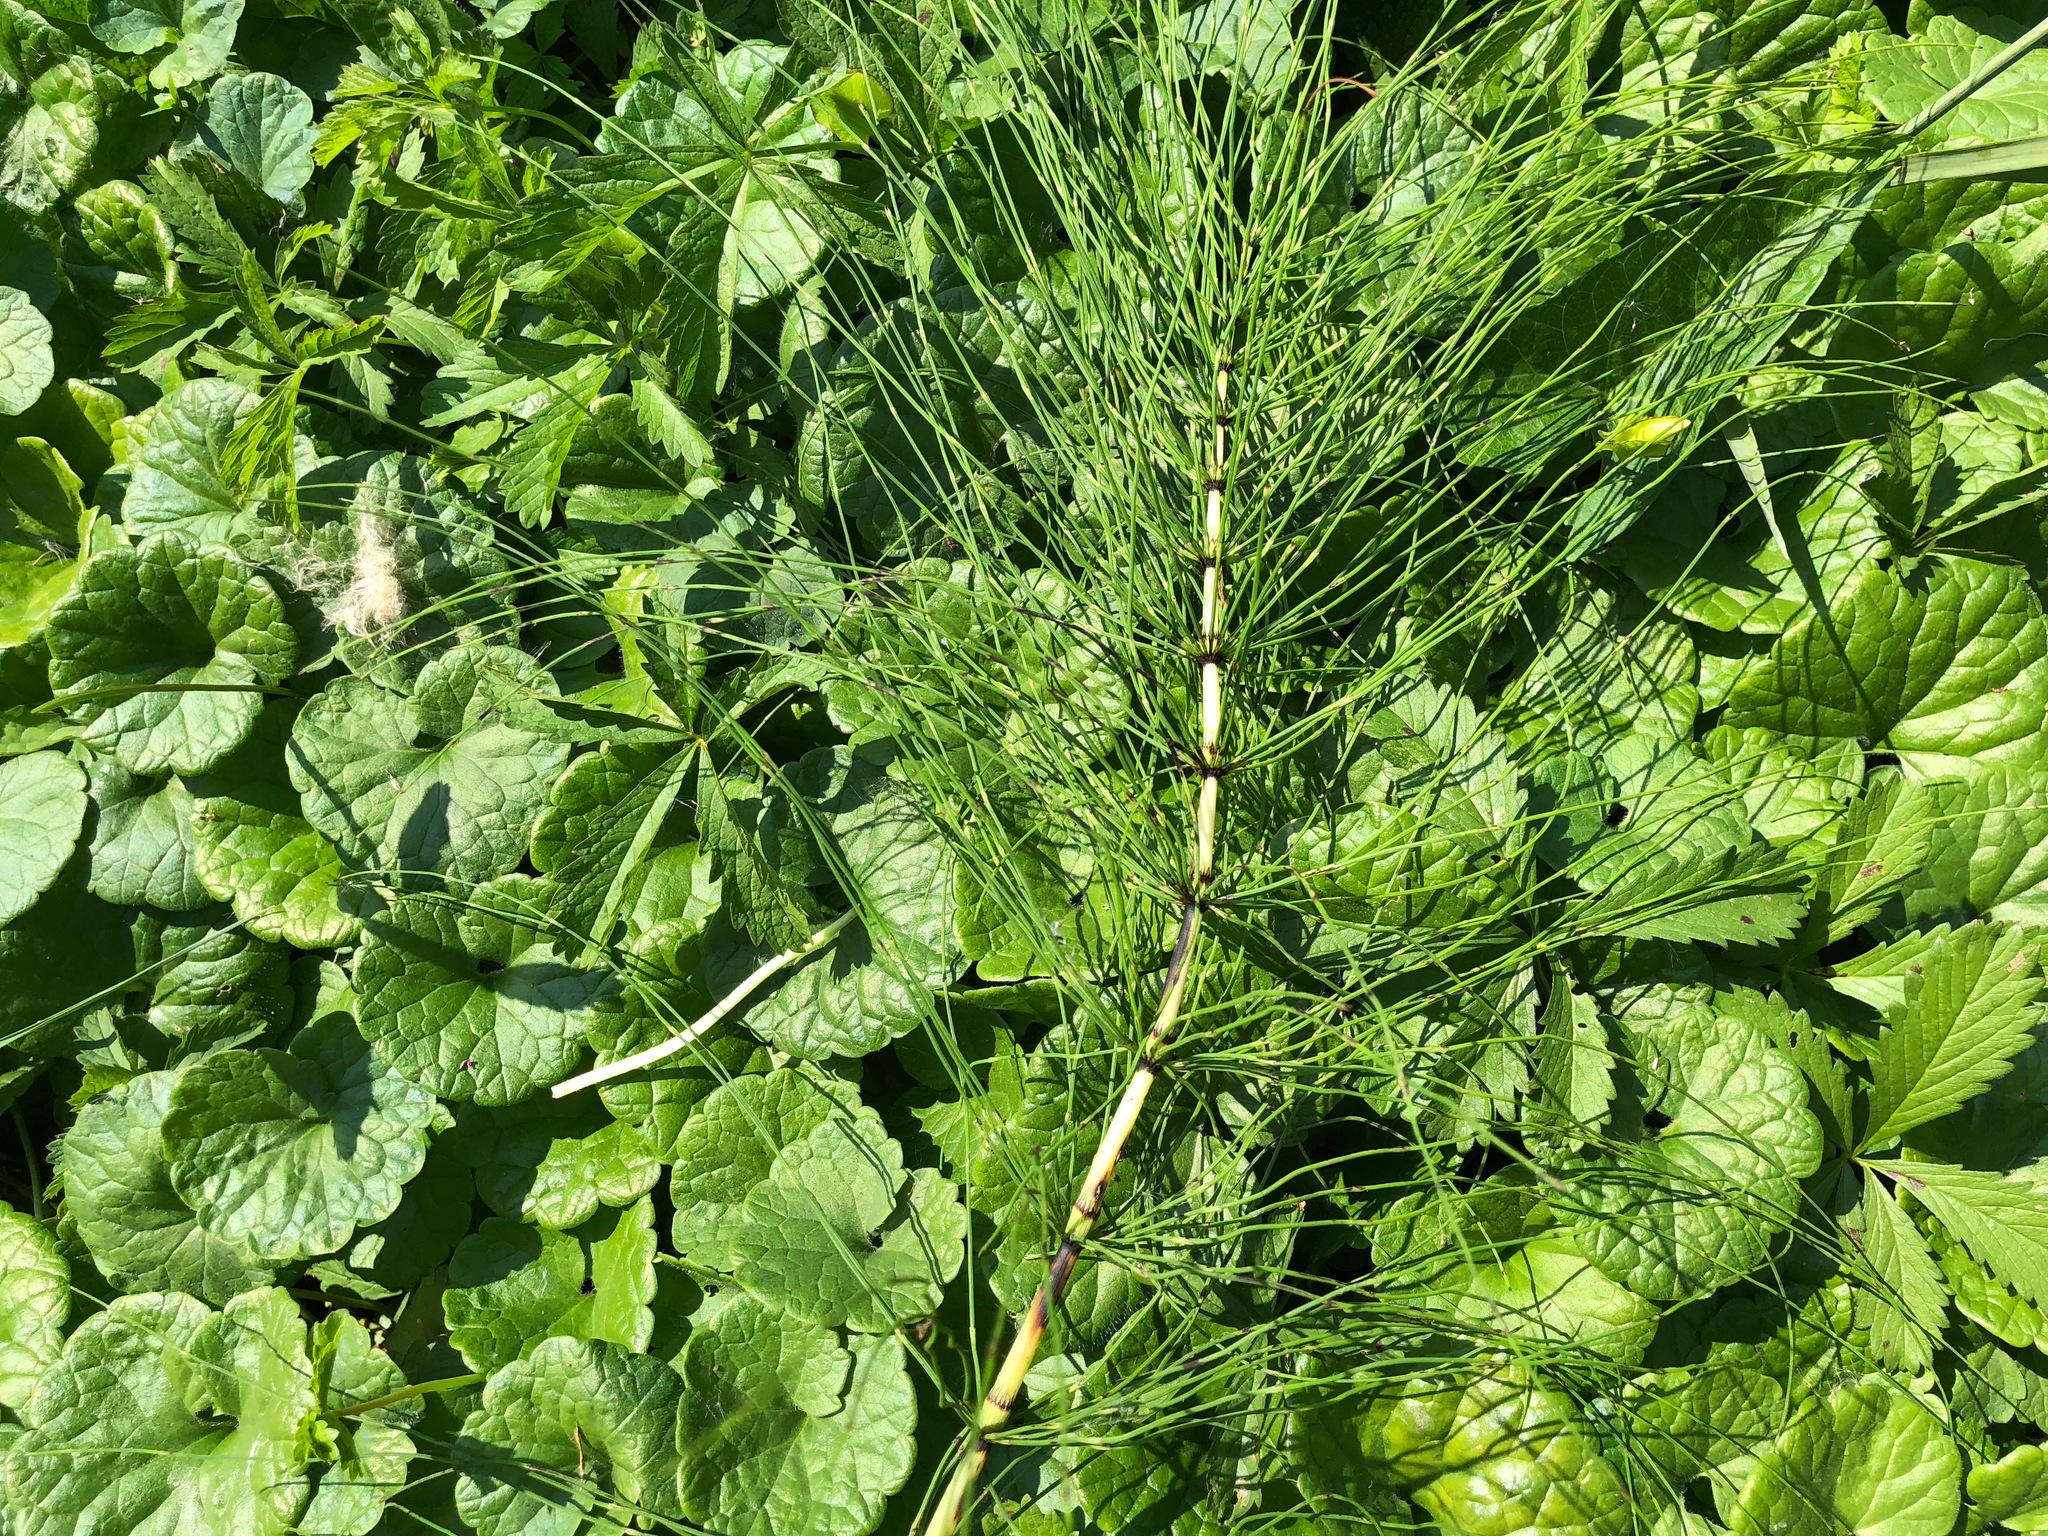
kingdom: Plantae
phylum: Tracheophyta
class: Polypodiopsida
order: Equisetales
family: Equisetaceae
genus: Equisetum
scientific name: Equisetum telmateia
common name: Great horsetail
